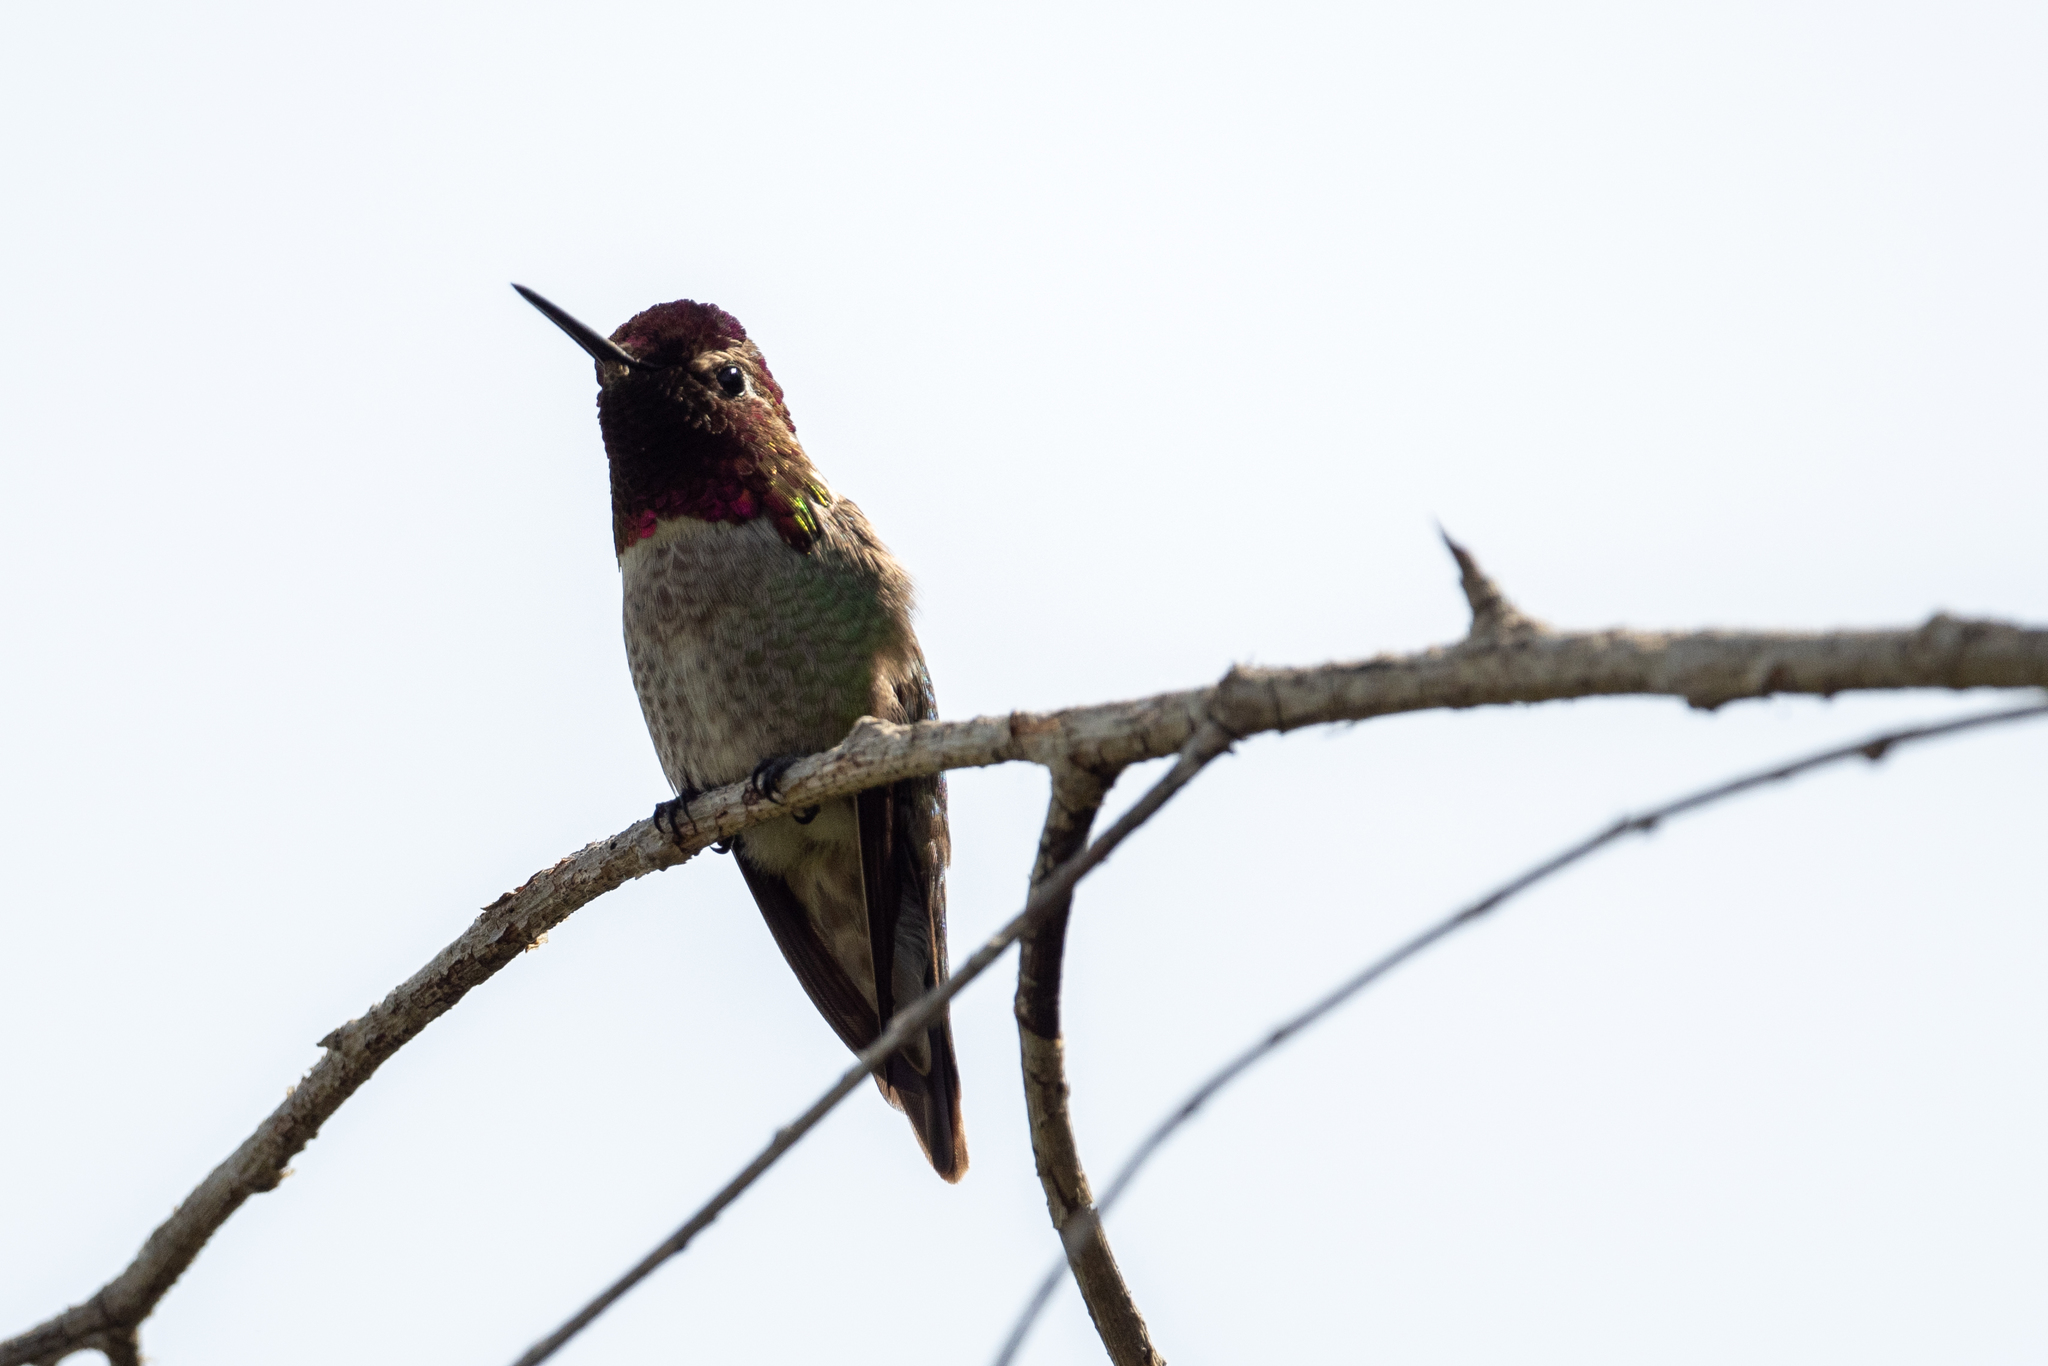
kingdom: Animalia
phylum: Chordata
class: Aves
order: Apodiformes
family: Trochilidae
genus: Calypte
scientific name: Calypte anna
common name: Anna's hummingbird
